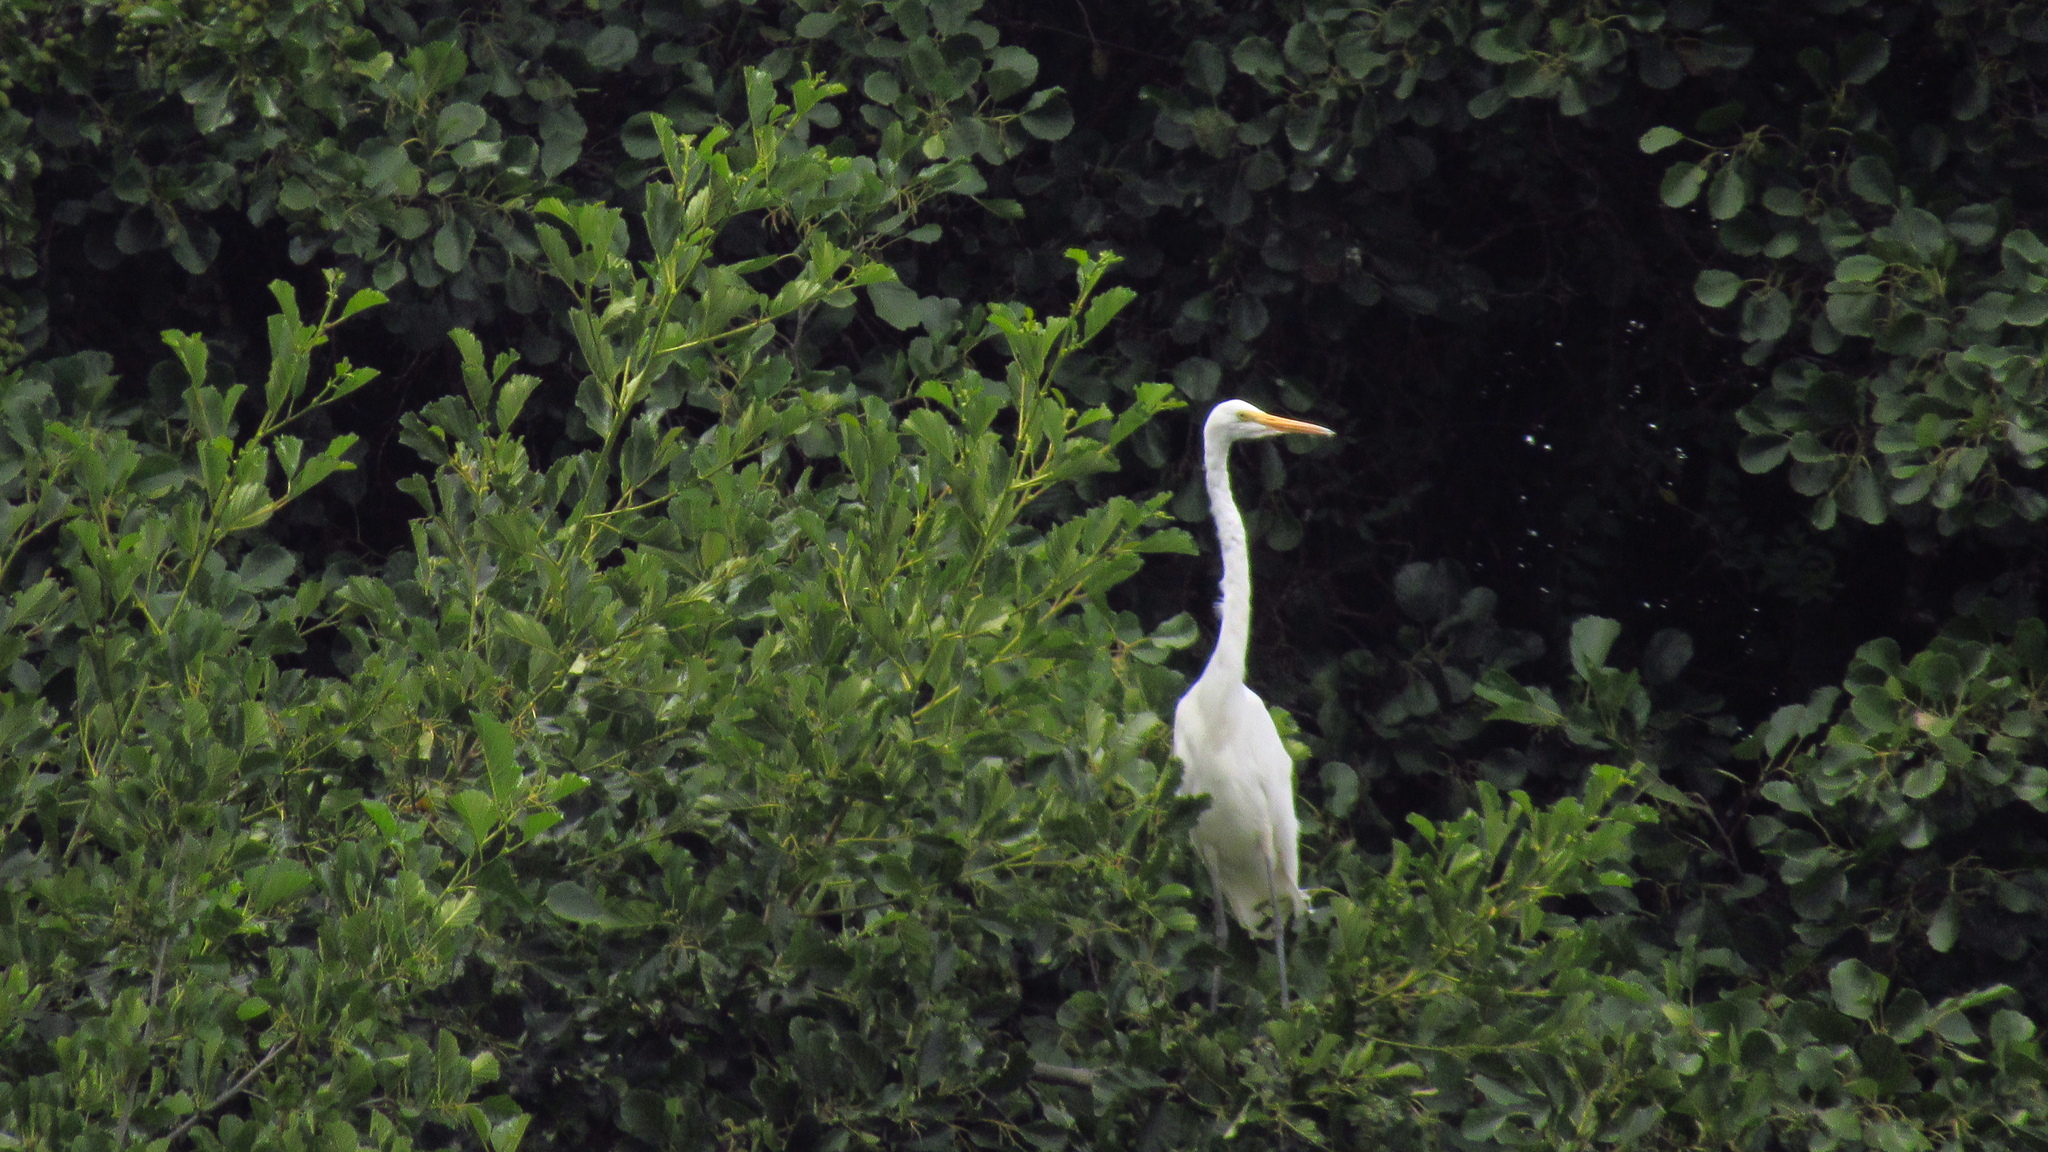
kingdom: Animalia
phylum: Chordata
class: Aves
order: Pelecaniformes
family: Ardeidae
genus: Ardea
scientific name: Ardea alba
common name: Great egret
